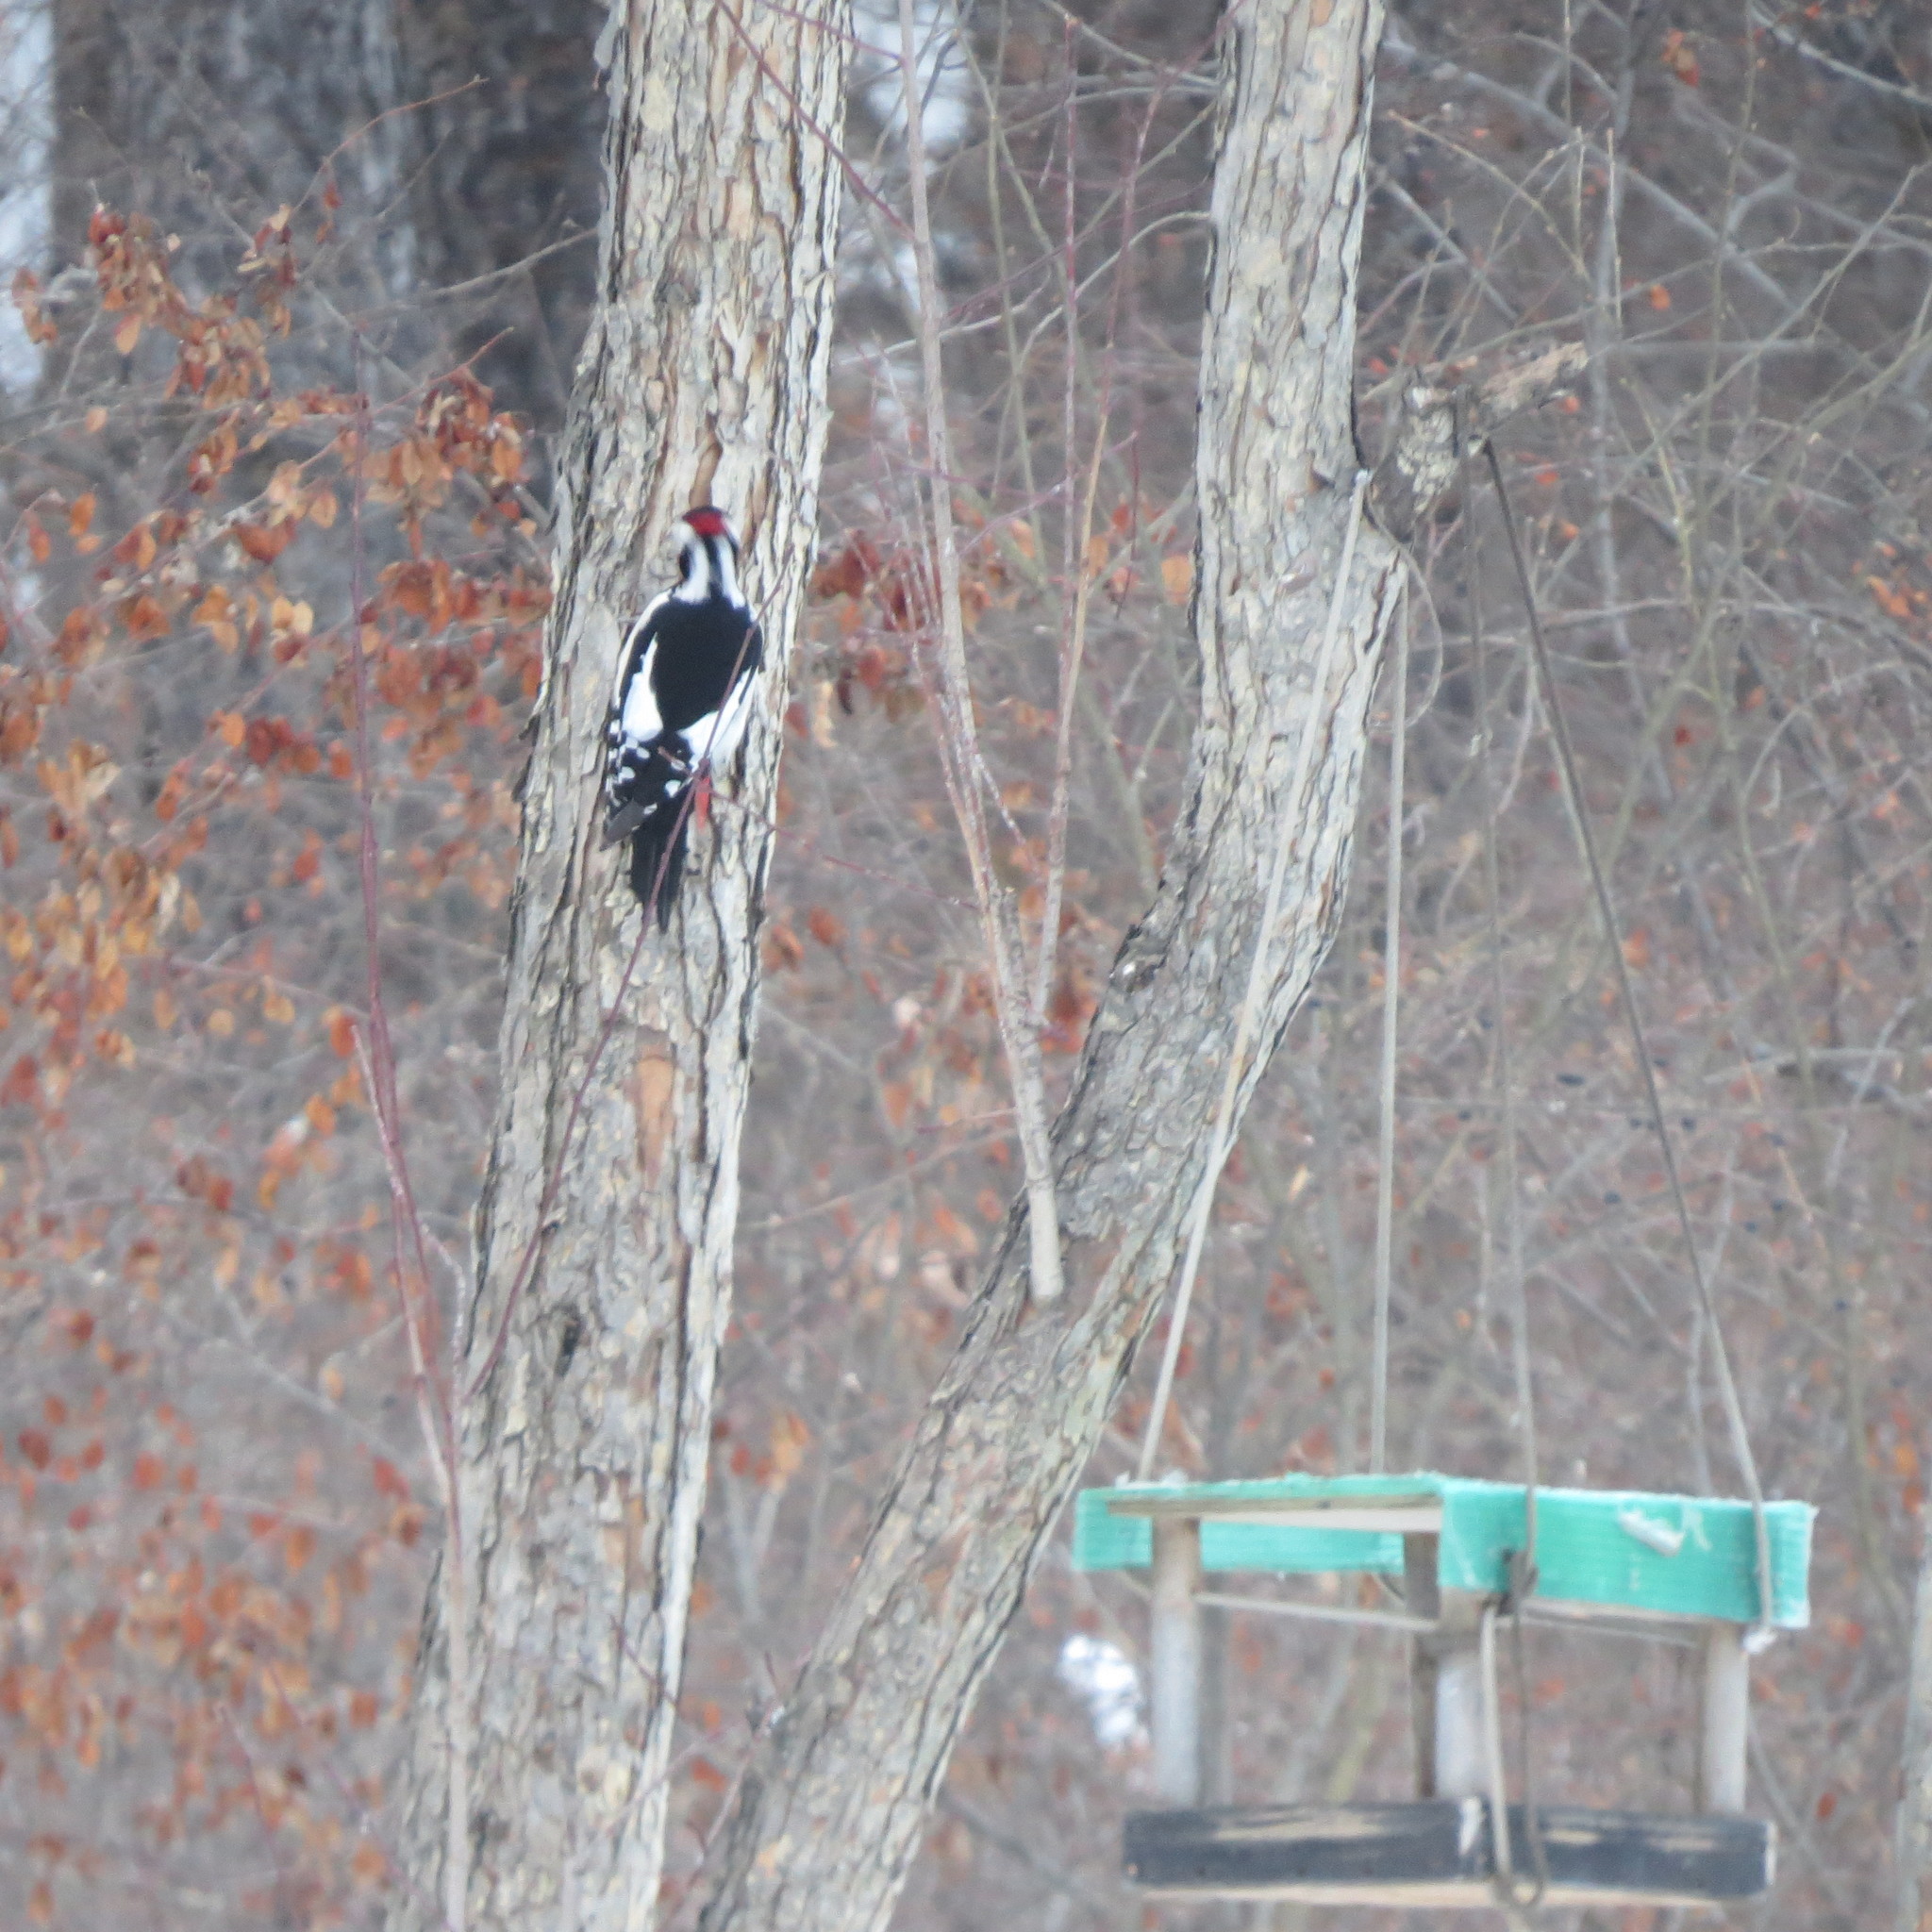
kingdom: Animalia
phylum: Chordata
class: Aves
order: Piciformes
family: Picidae
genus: Dendrocopos
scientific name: Dendrocopos major
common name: Great spotted woodpecker
